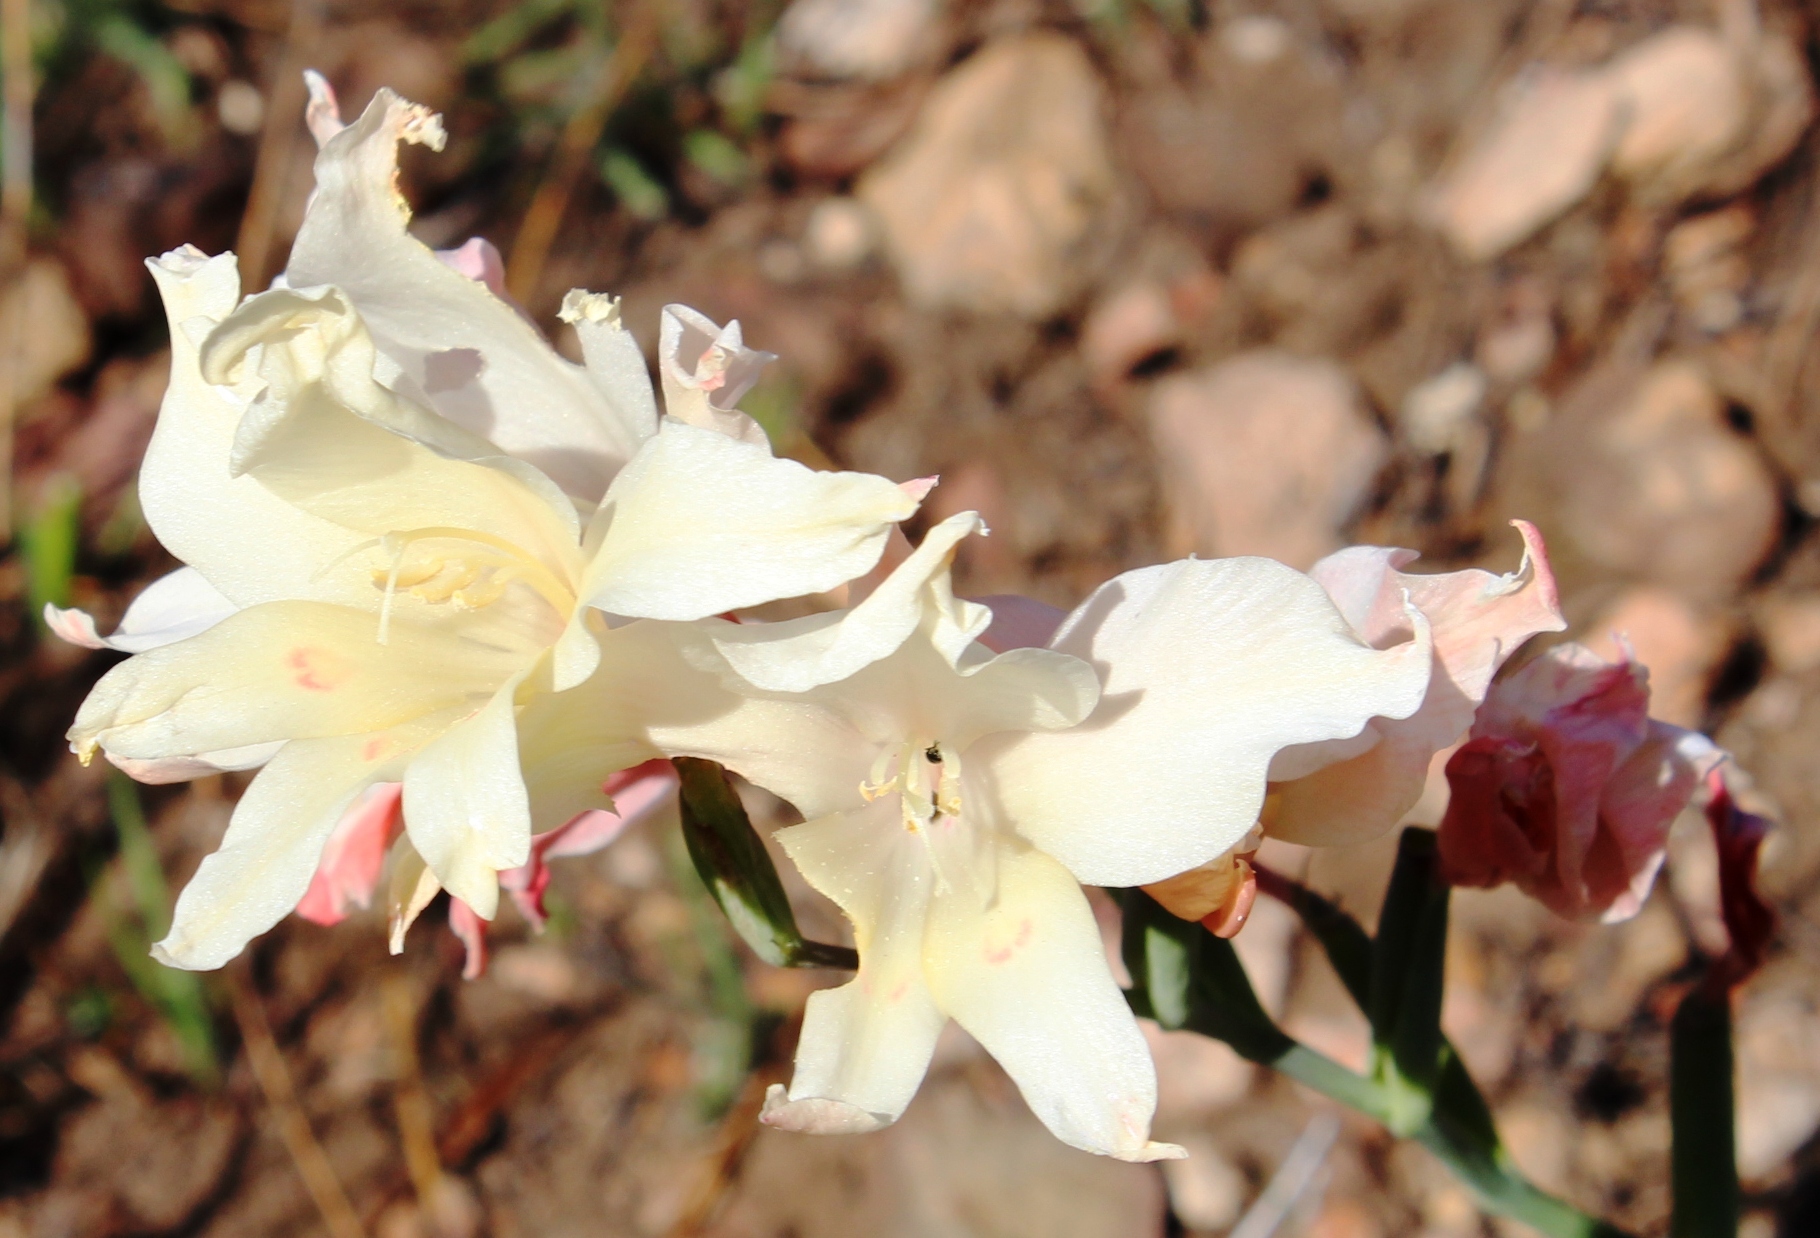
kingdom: Plantae
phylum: Tracheophyta
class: Liliopsida
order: Asparagales
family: Iridaceae
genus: Gladiolus
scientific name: Gladiolus undulatus
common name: Large painted-lady
